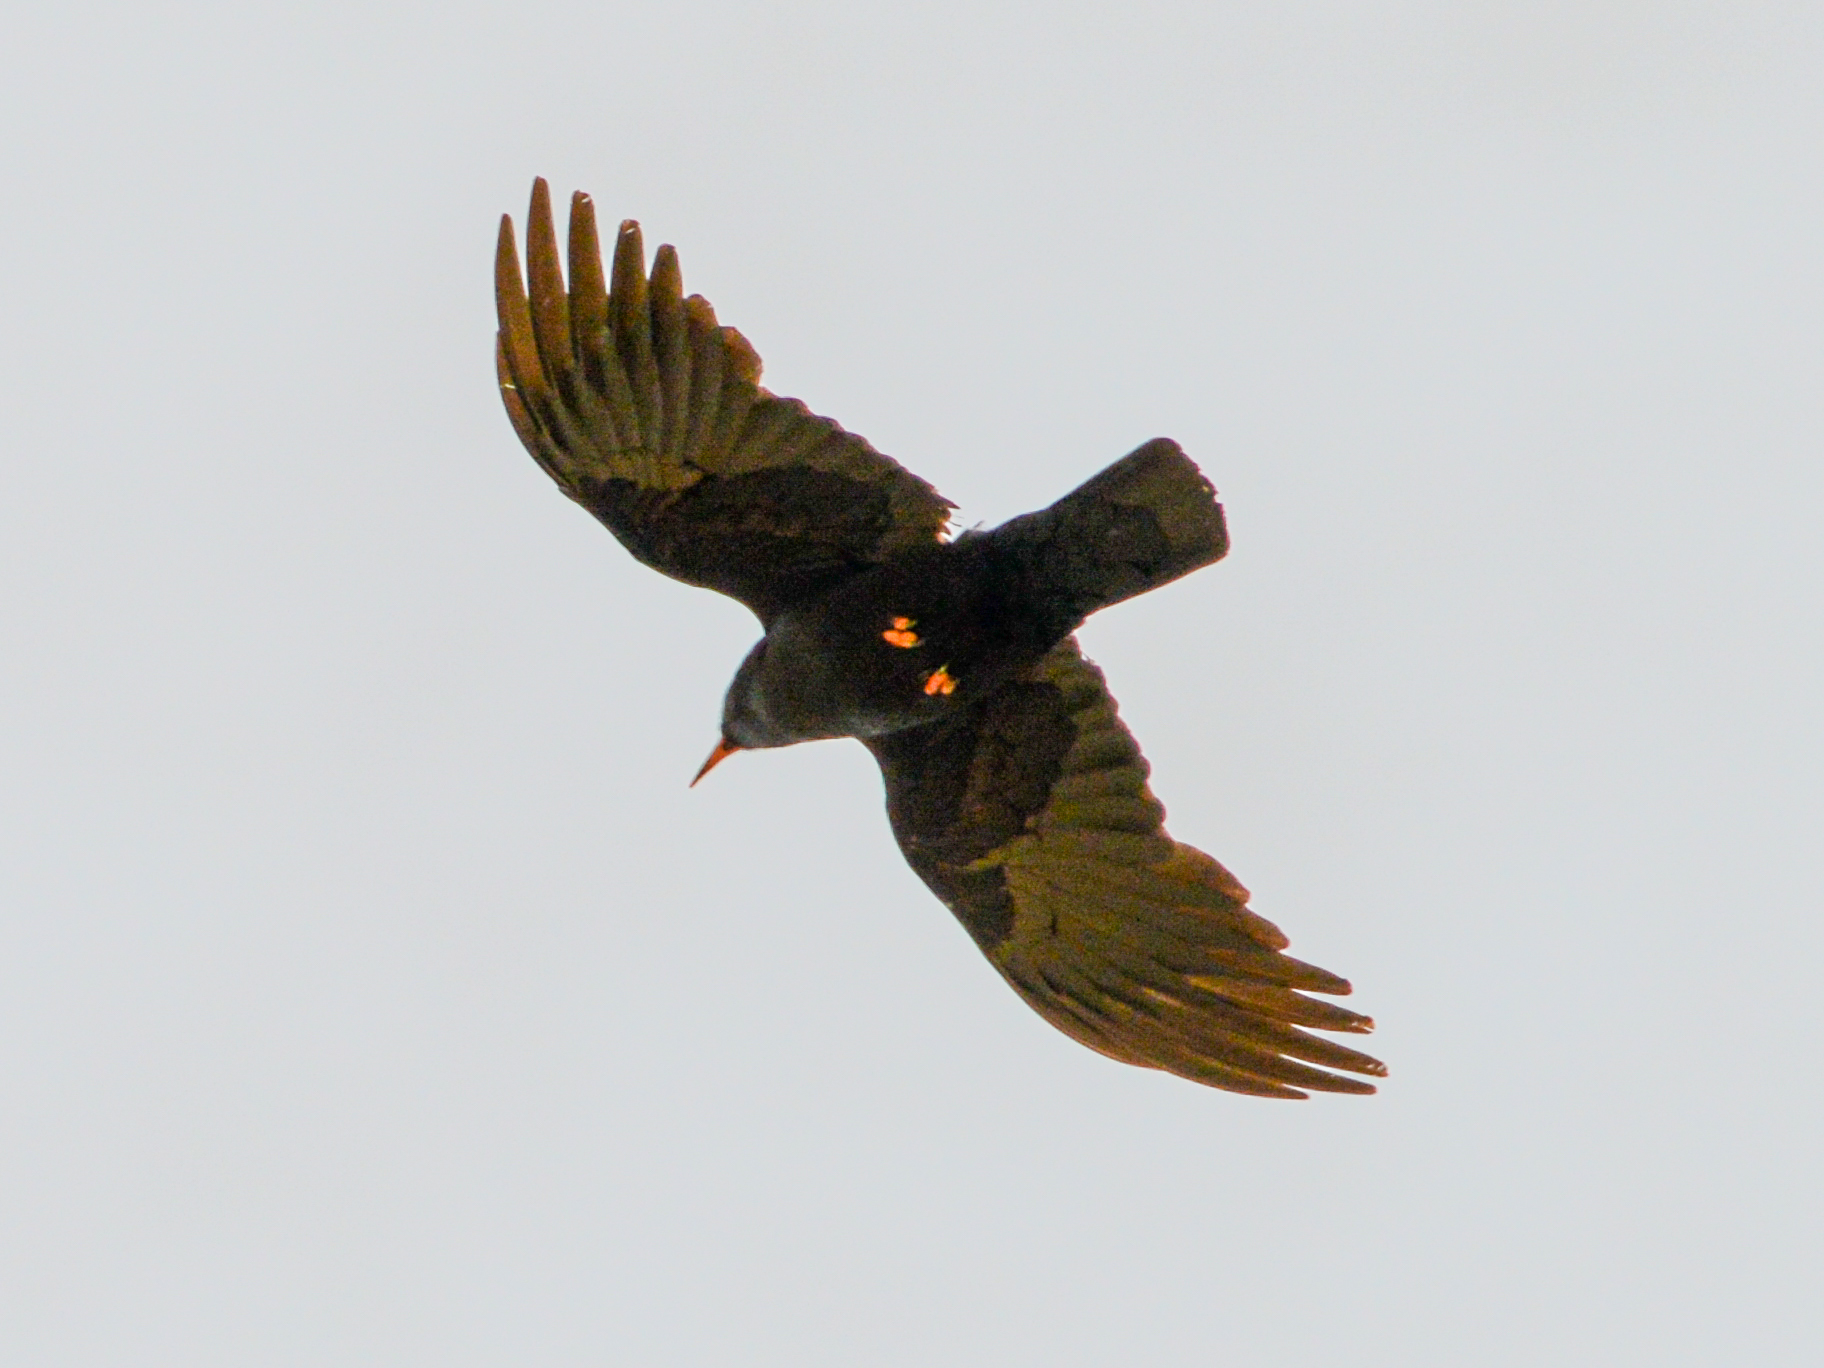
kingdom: Animalia
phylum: Chordata
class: Aves
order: Passeriformes
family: Corvidae
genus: Pyrrhocorax
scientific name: Pyrrhocorax pyrrhocorax
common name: Red-billed chough
